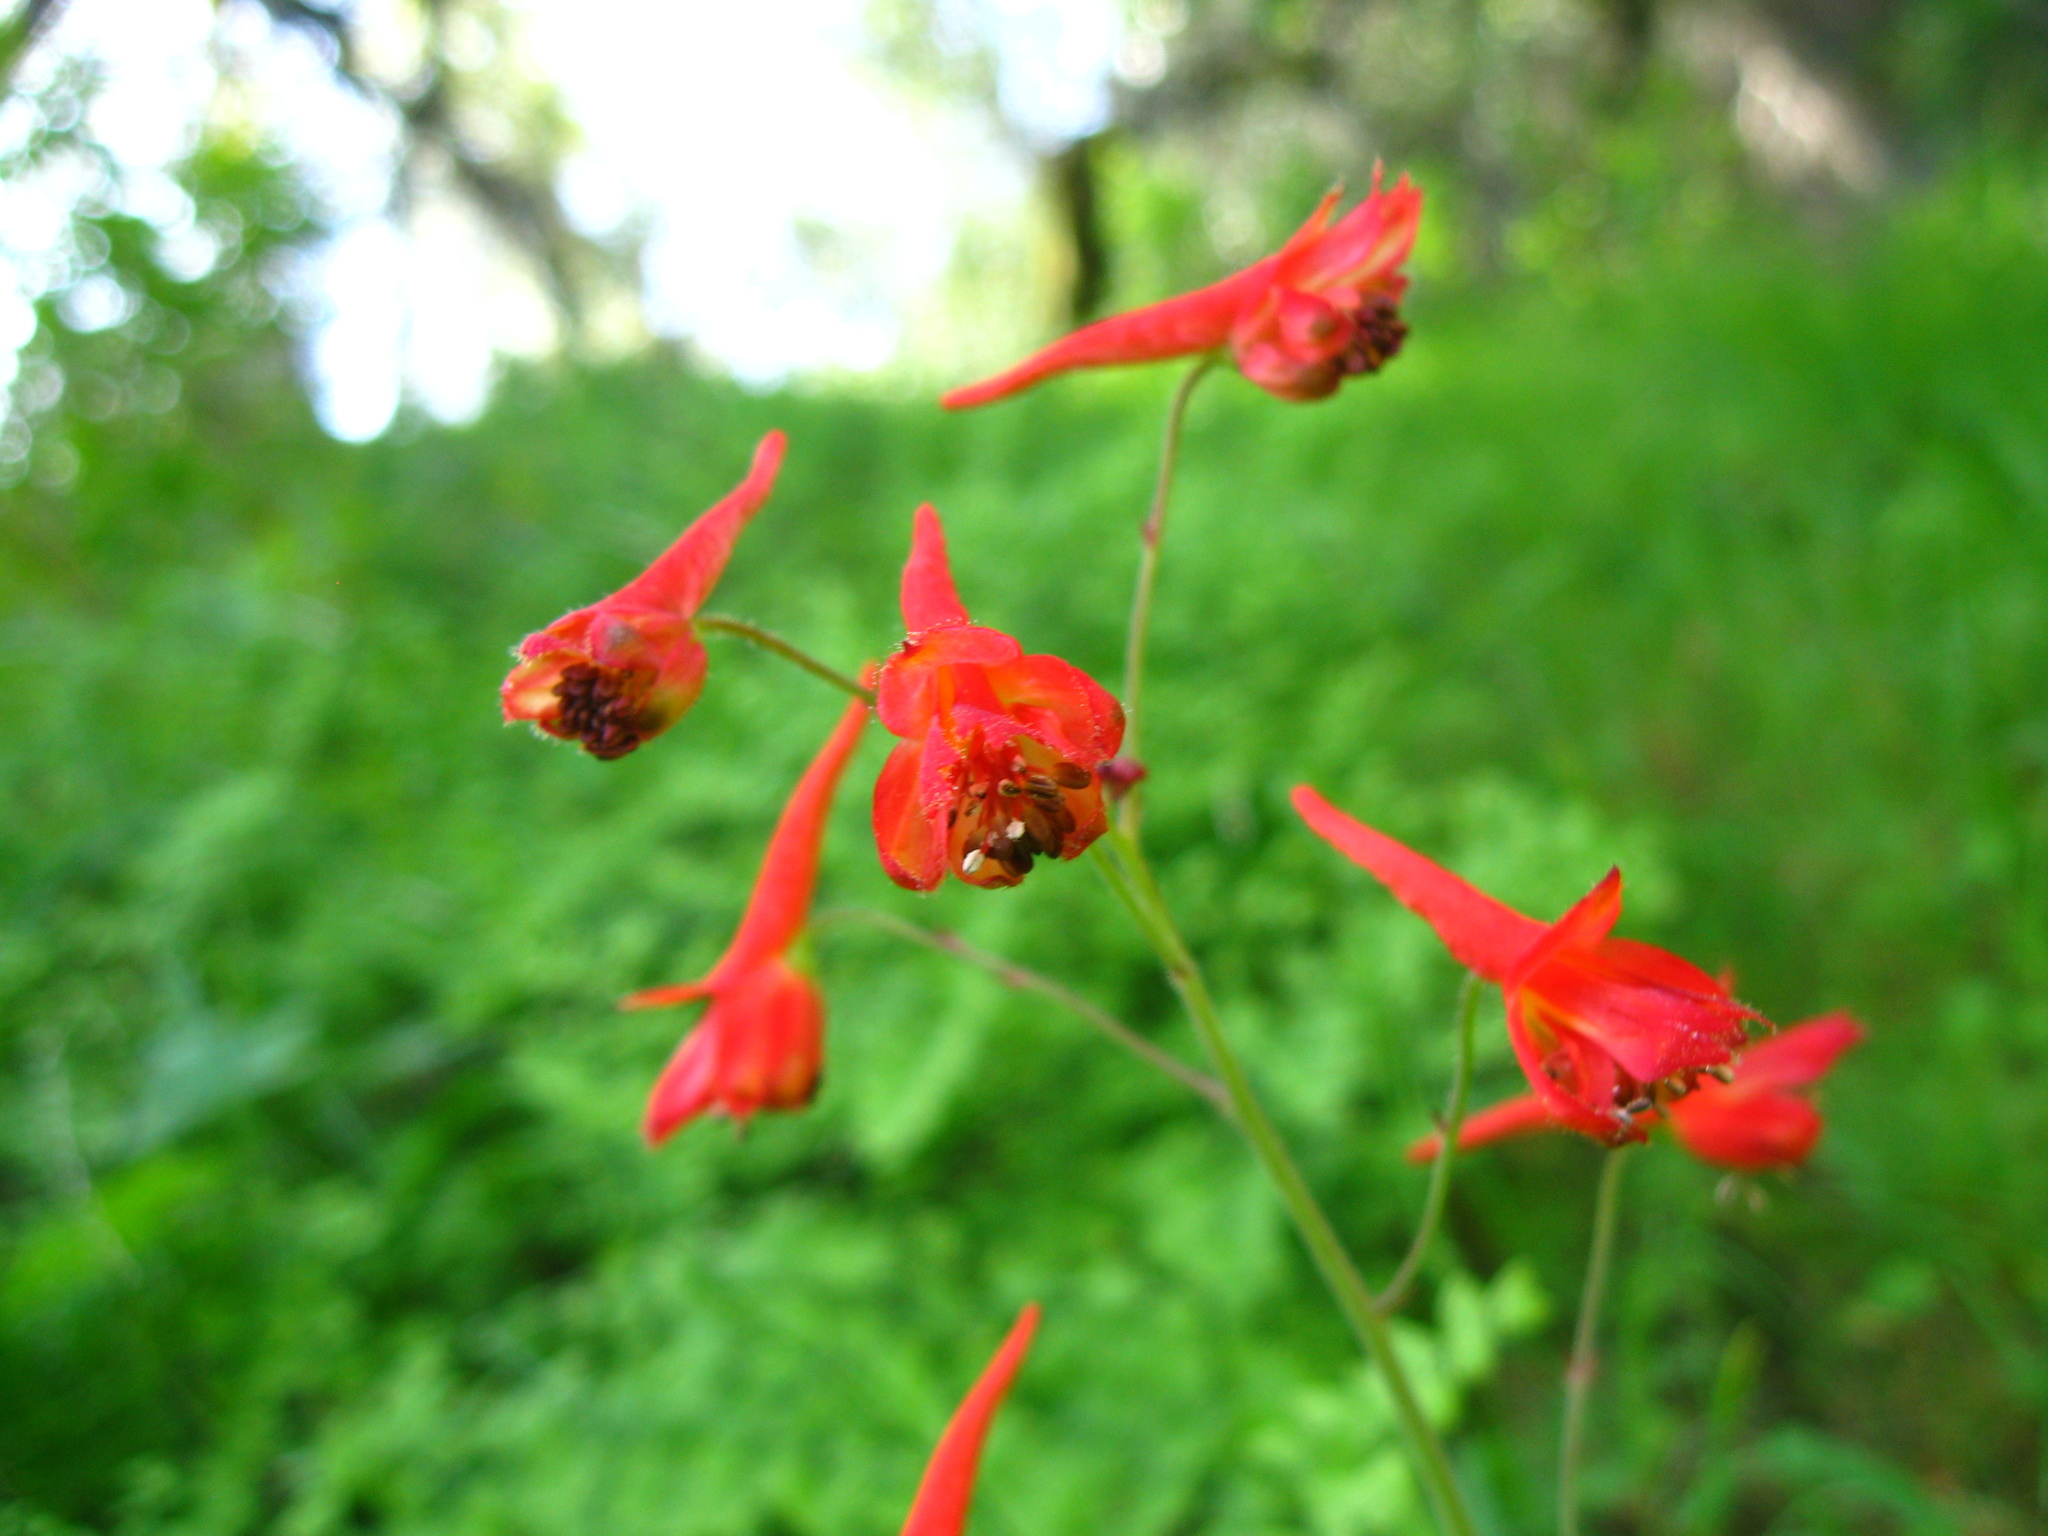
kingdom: Plantae
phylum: Tracheophyta
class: Magnoliopsida
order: Ranunculales
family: Ranunculaceae
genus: Delphinium
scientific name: Delphinium nudicaule
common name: Red larkspur
